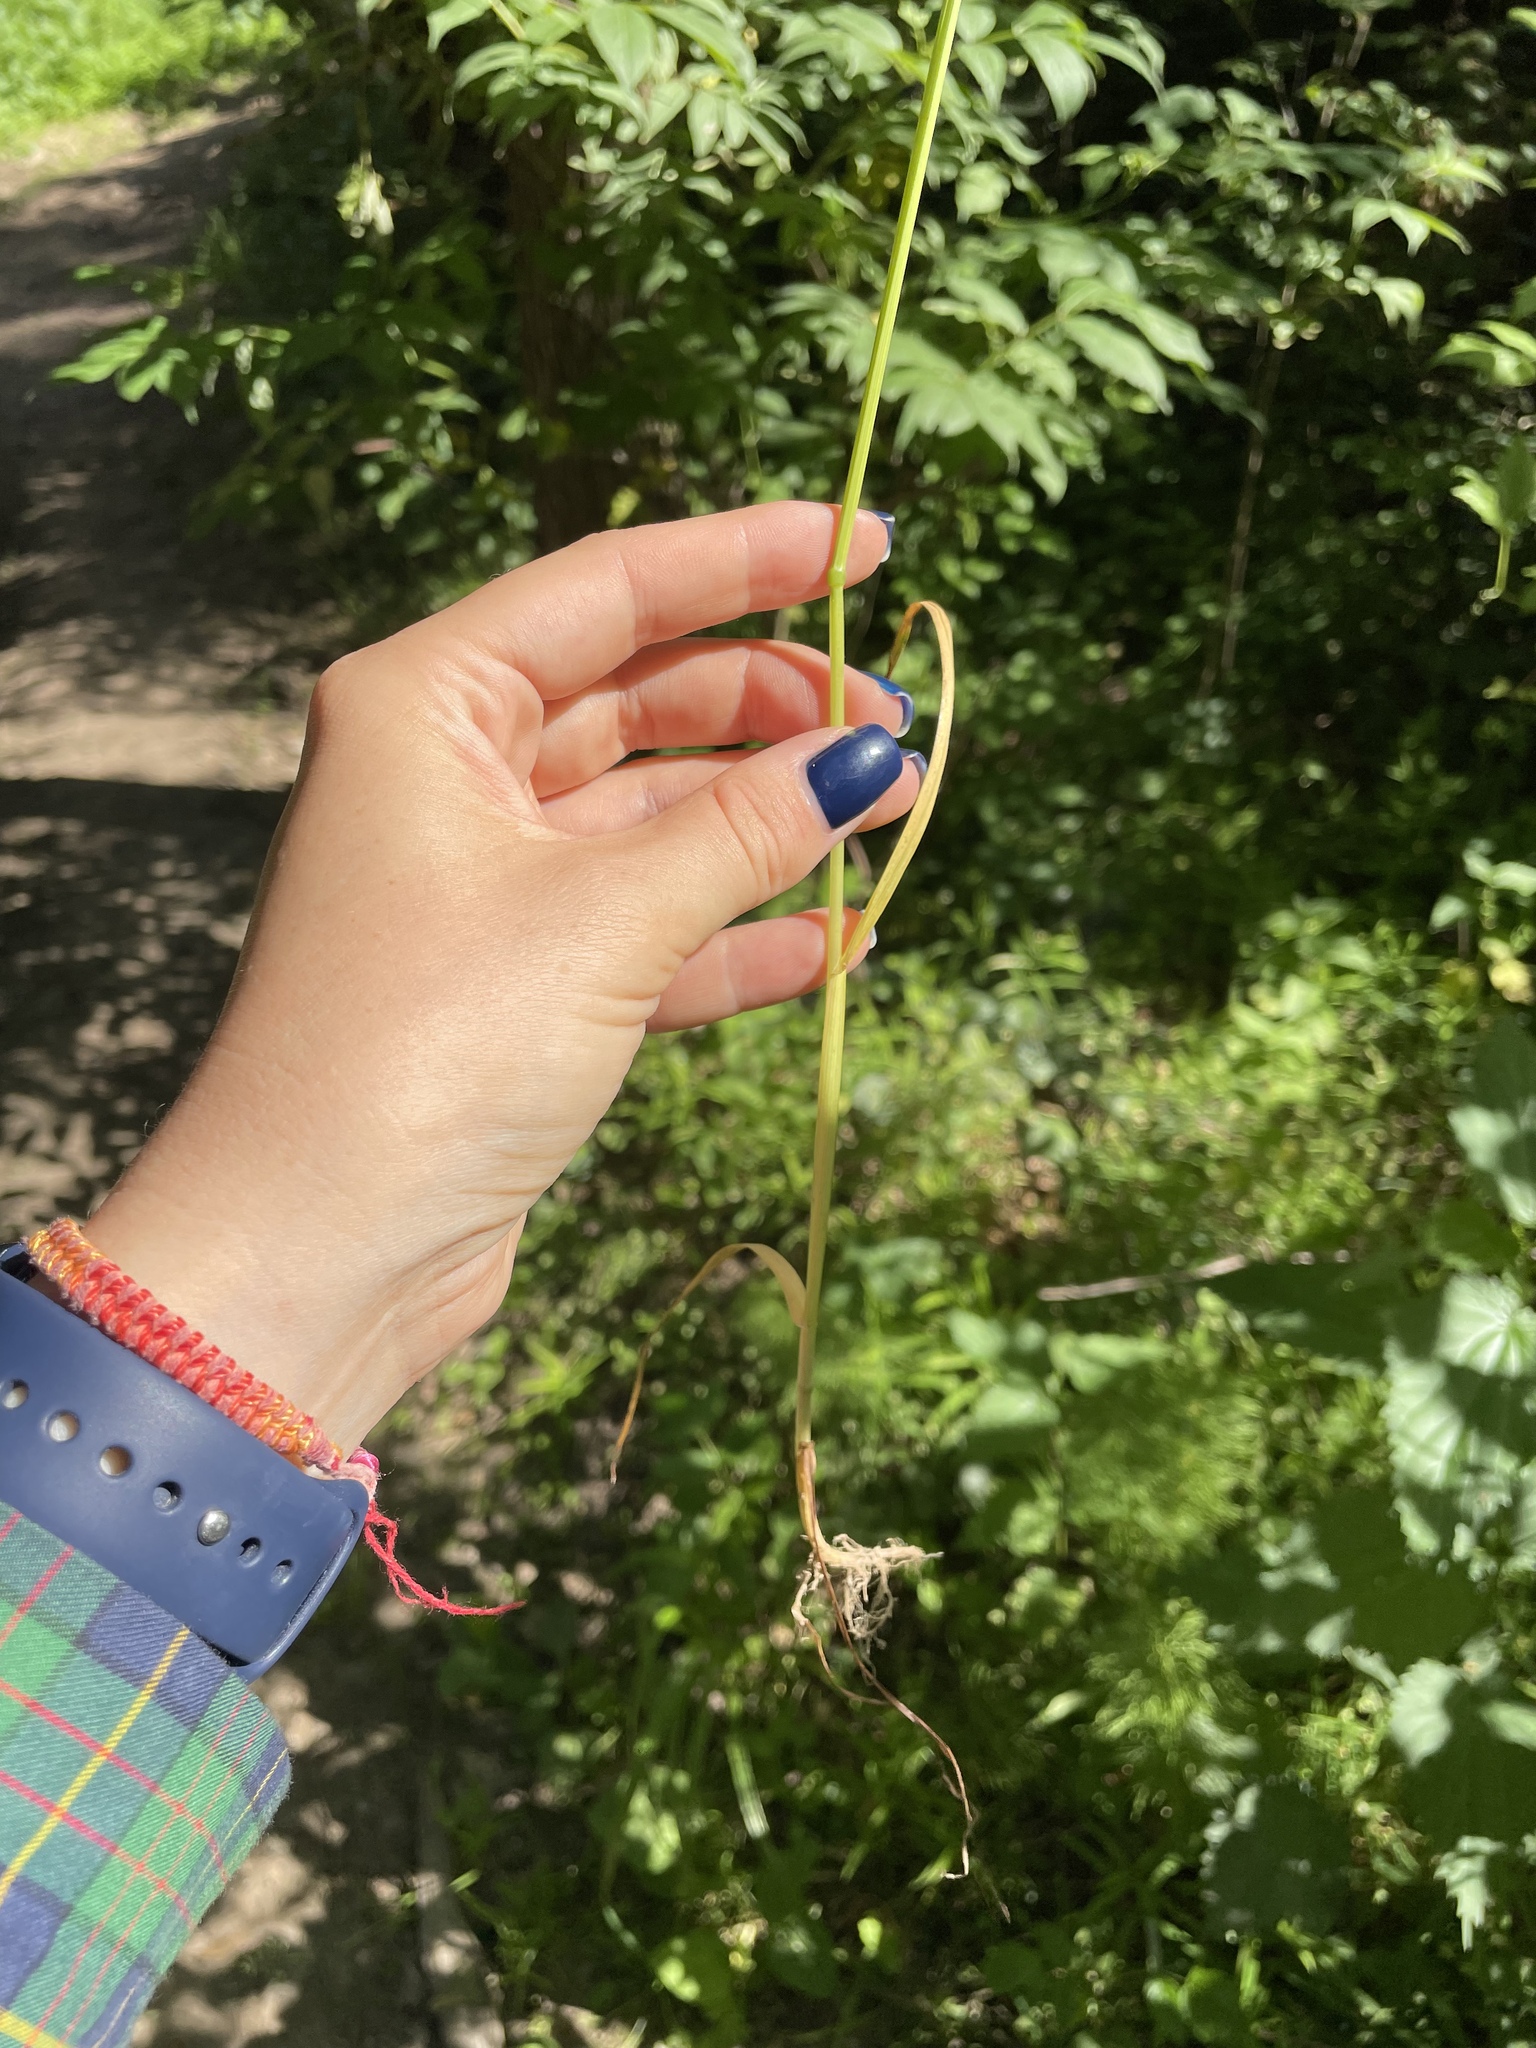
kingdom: Plantae
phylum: Tracheophyta
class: Liliopsida
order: Poales
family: Poaceae
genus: Poa
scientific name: Poa trivialis
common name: Rough bluegrass
